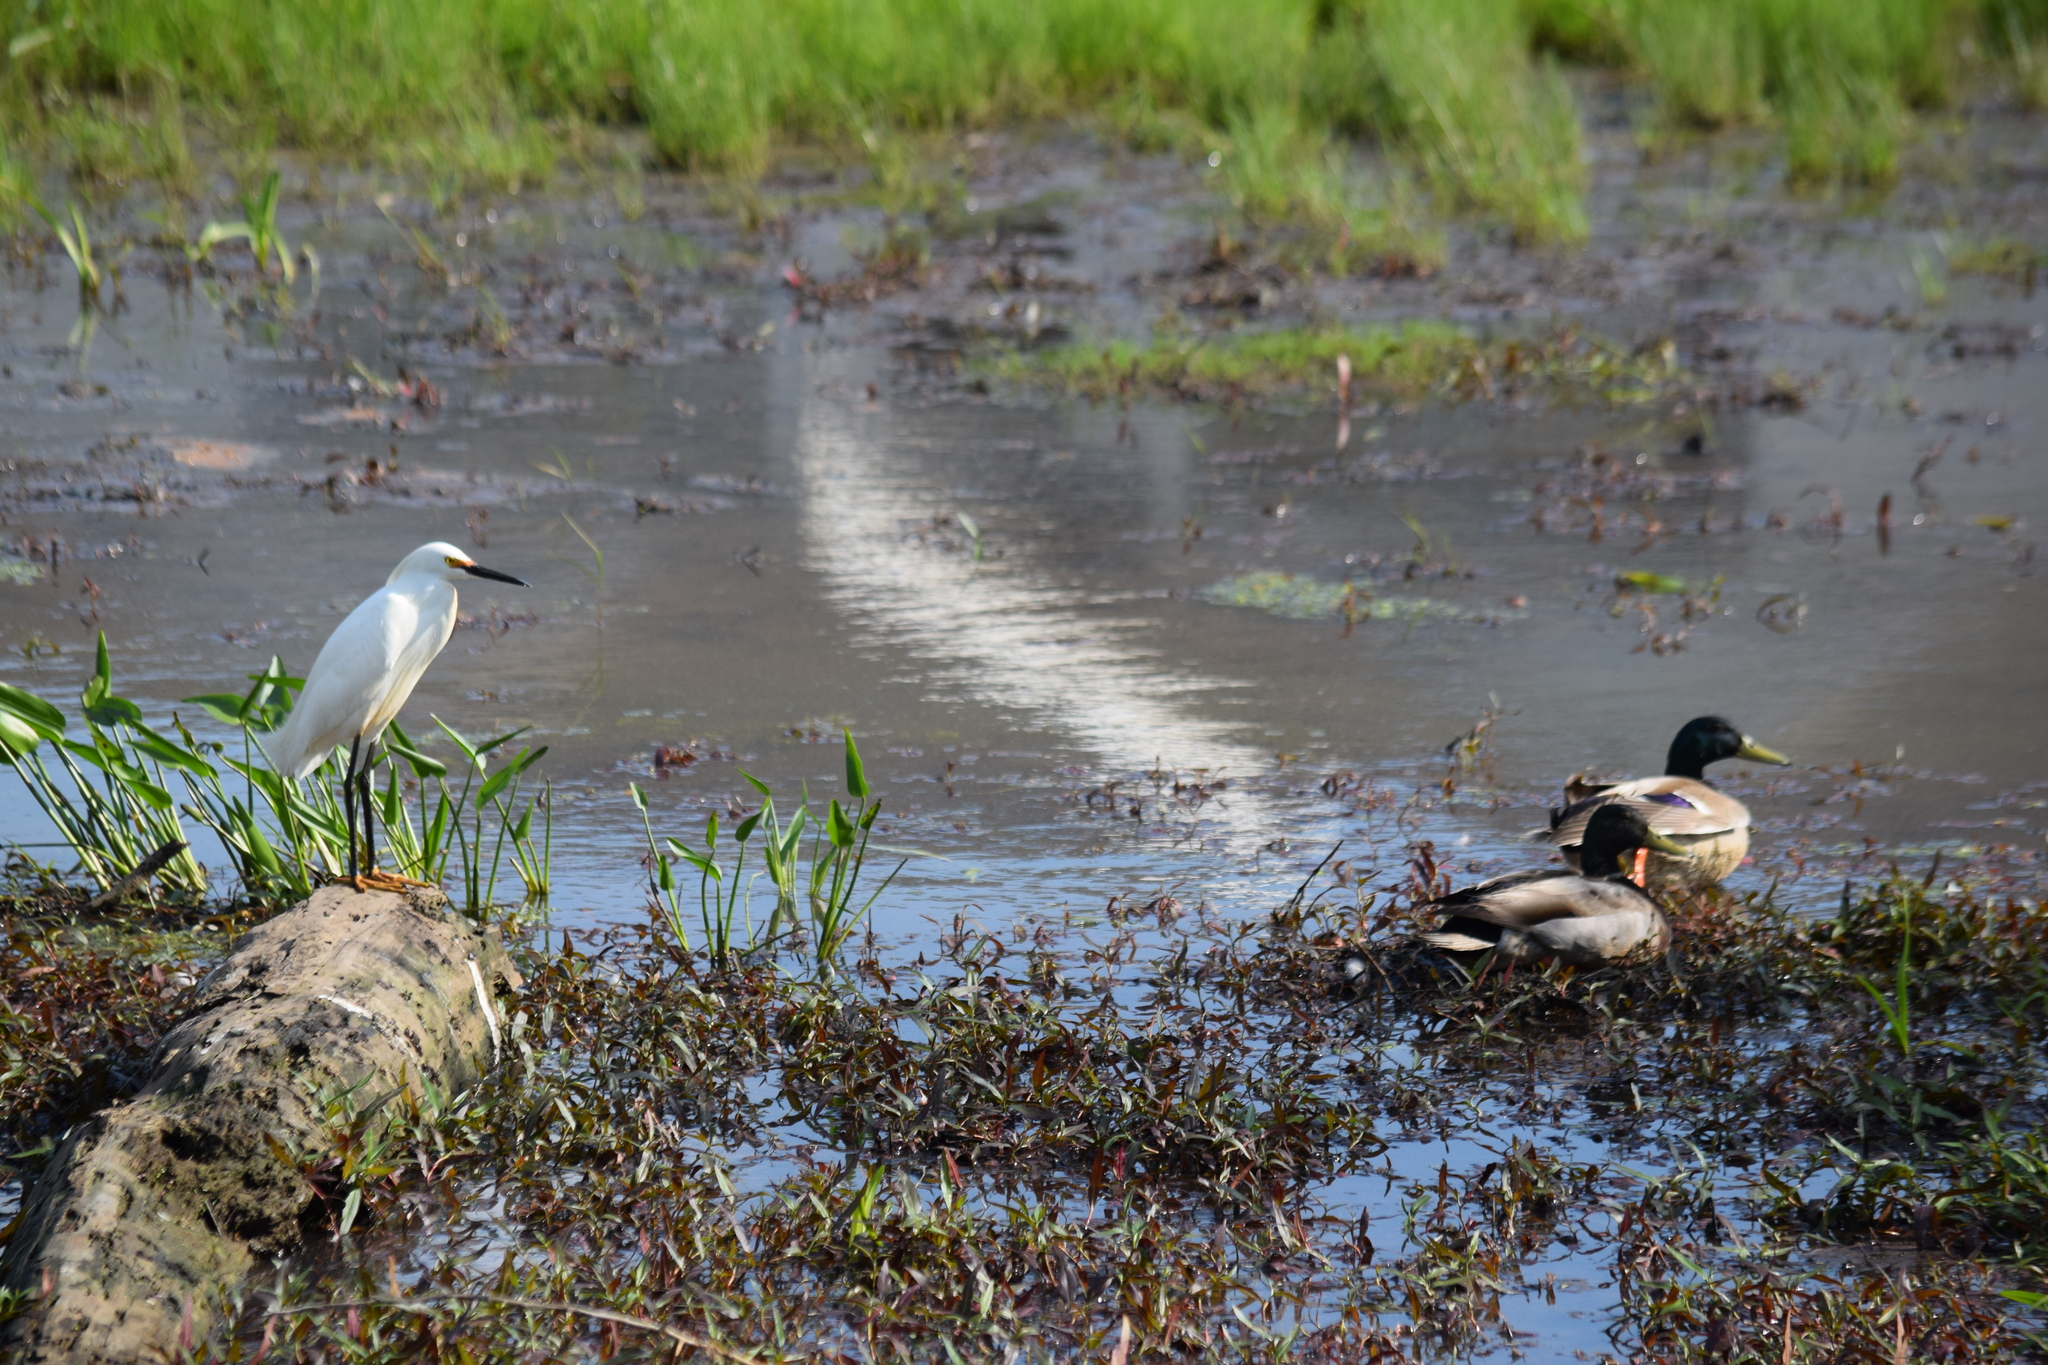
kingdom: Animalia
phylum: Chordata
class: Aves
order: Anseriformes
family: Anatidae
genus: Anas
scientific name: Anas platyrhynchos
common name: Mallard
